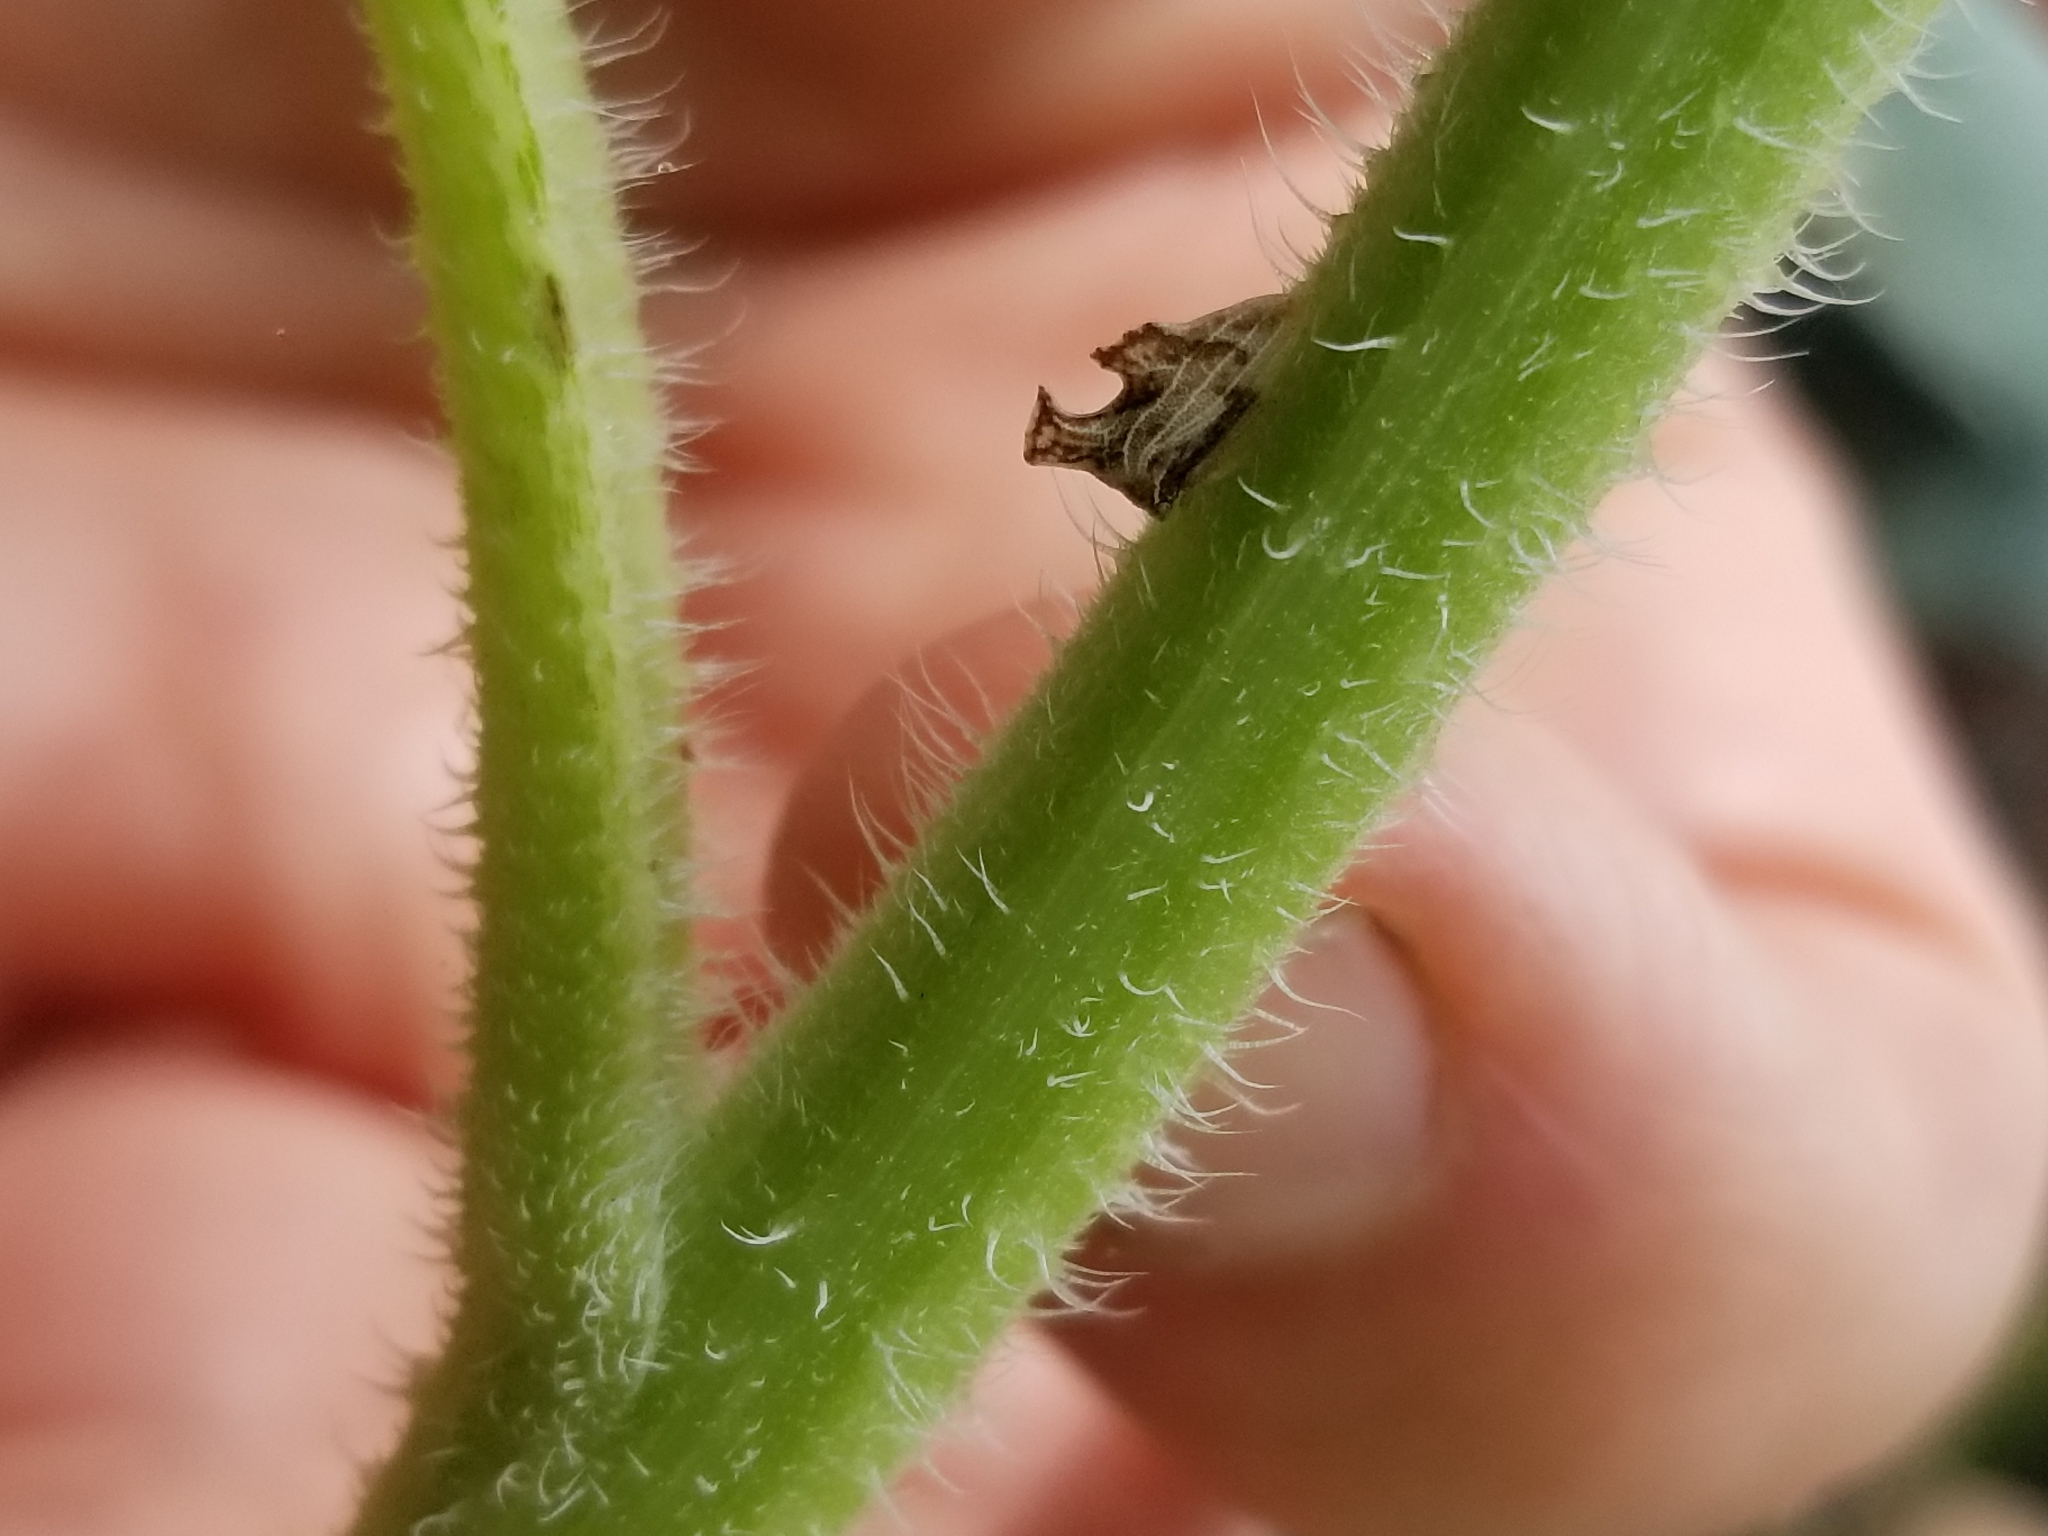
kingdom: Animalia
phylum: Arthropoda
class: Insecta
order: Hemiptera
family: Membracidae
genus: Entylia
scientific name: Entylia carinata
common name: Keeled treehopper
